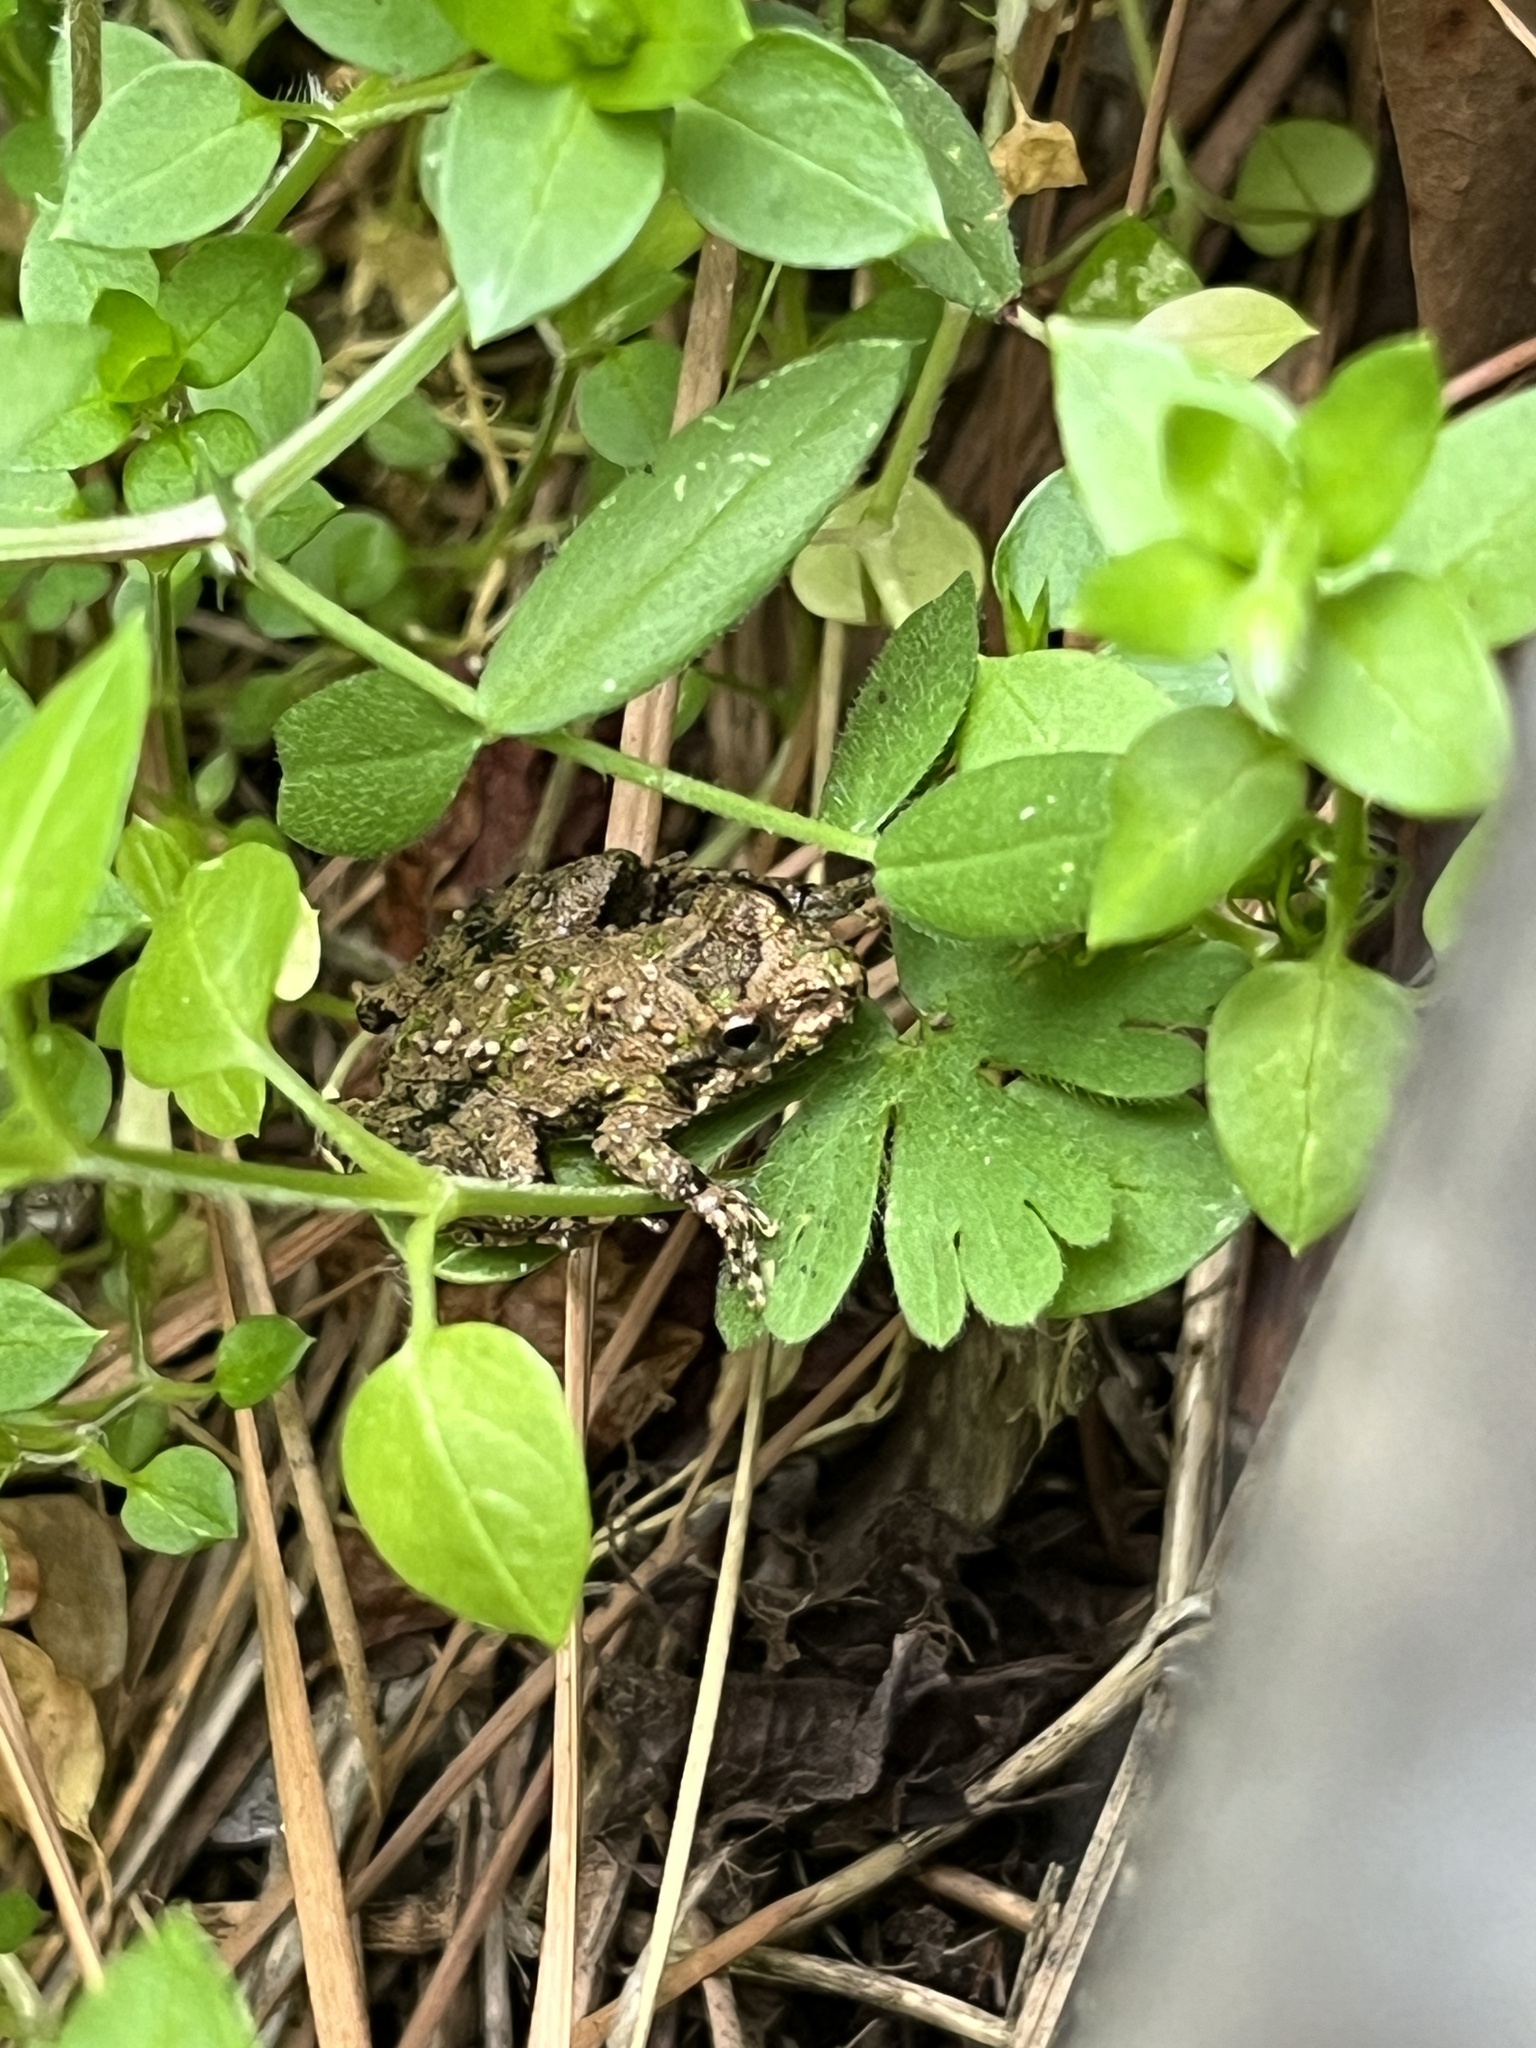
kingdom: Animalia
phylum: Chordata
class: Amphibia
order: Anura
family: Hylidae
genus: Acris
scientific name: Acris blanchardi
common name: Blanchard's cricket frog
